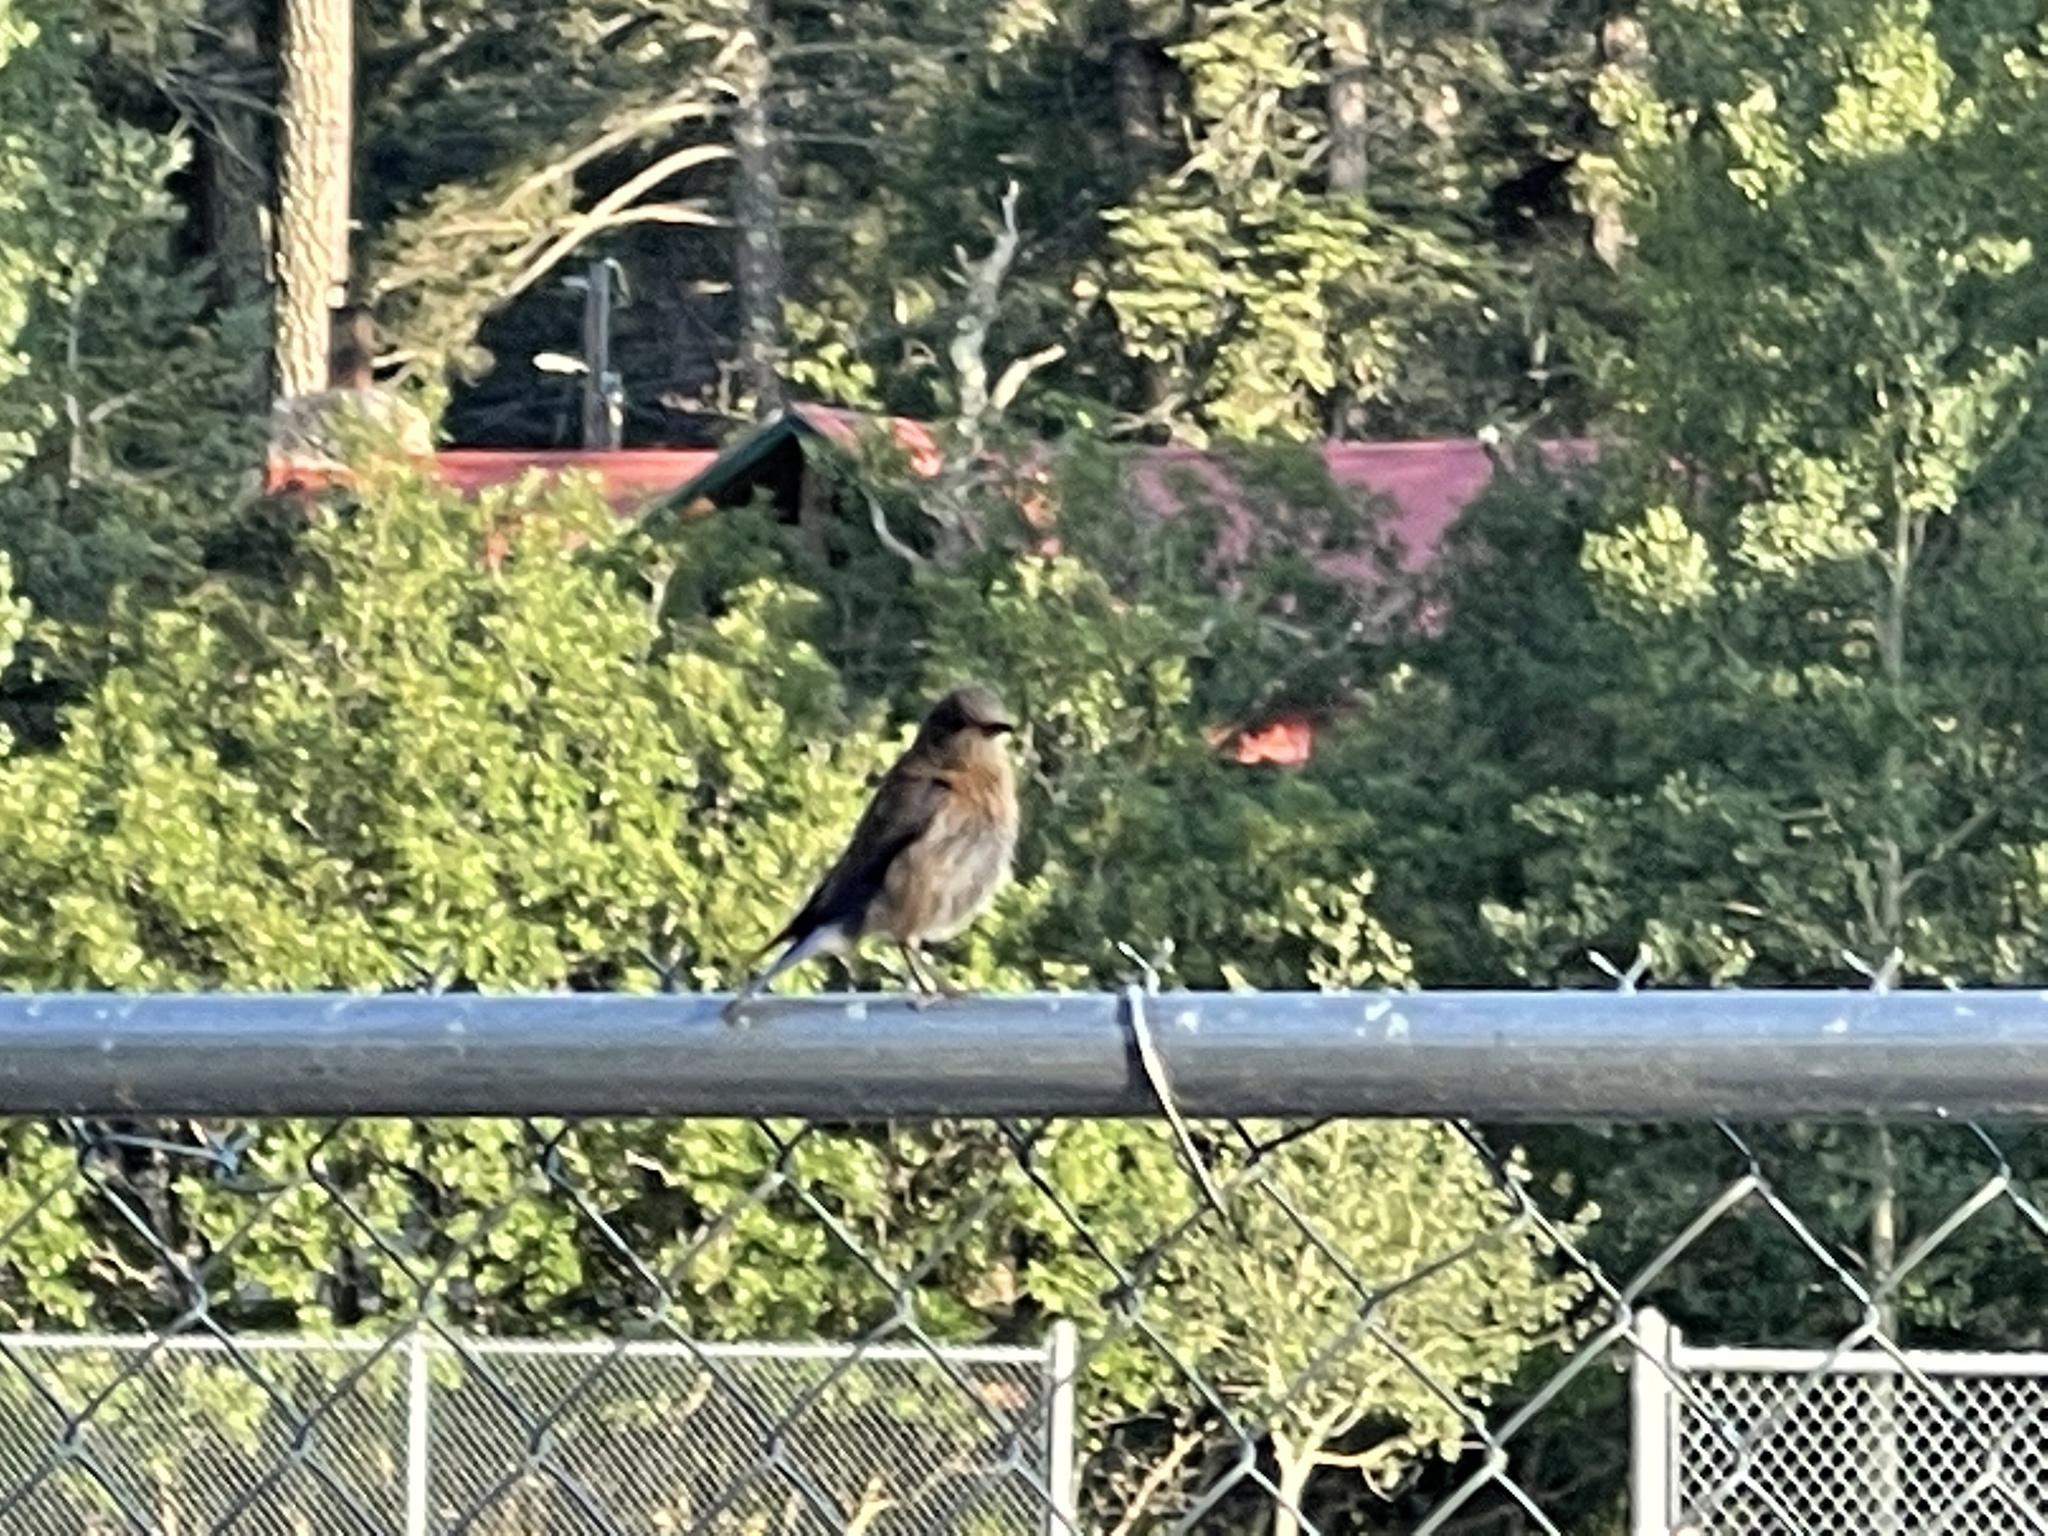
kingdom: Animalia
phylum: Chordata
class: Aves
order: Passeriformes
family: Turdidae
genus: Sialia
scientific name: Sialia mexicana
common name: Western bluebird
